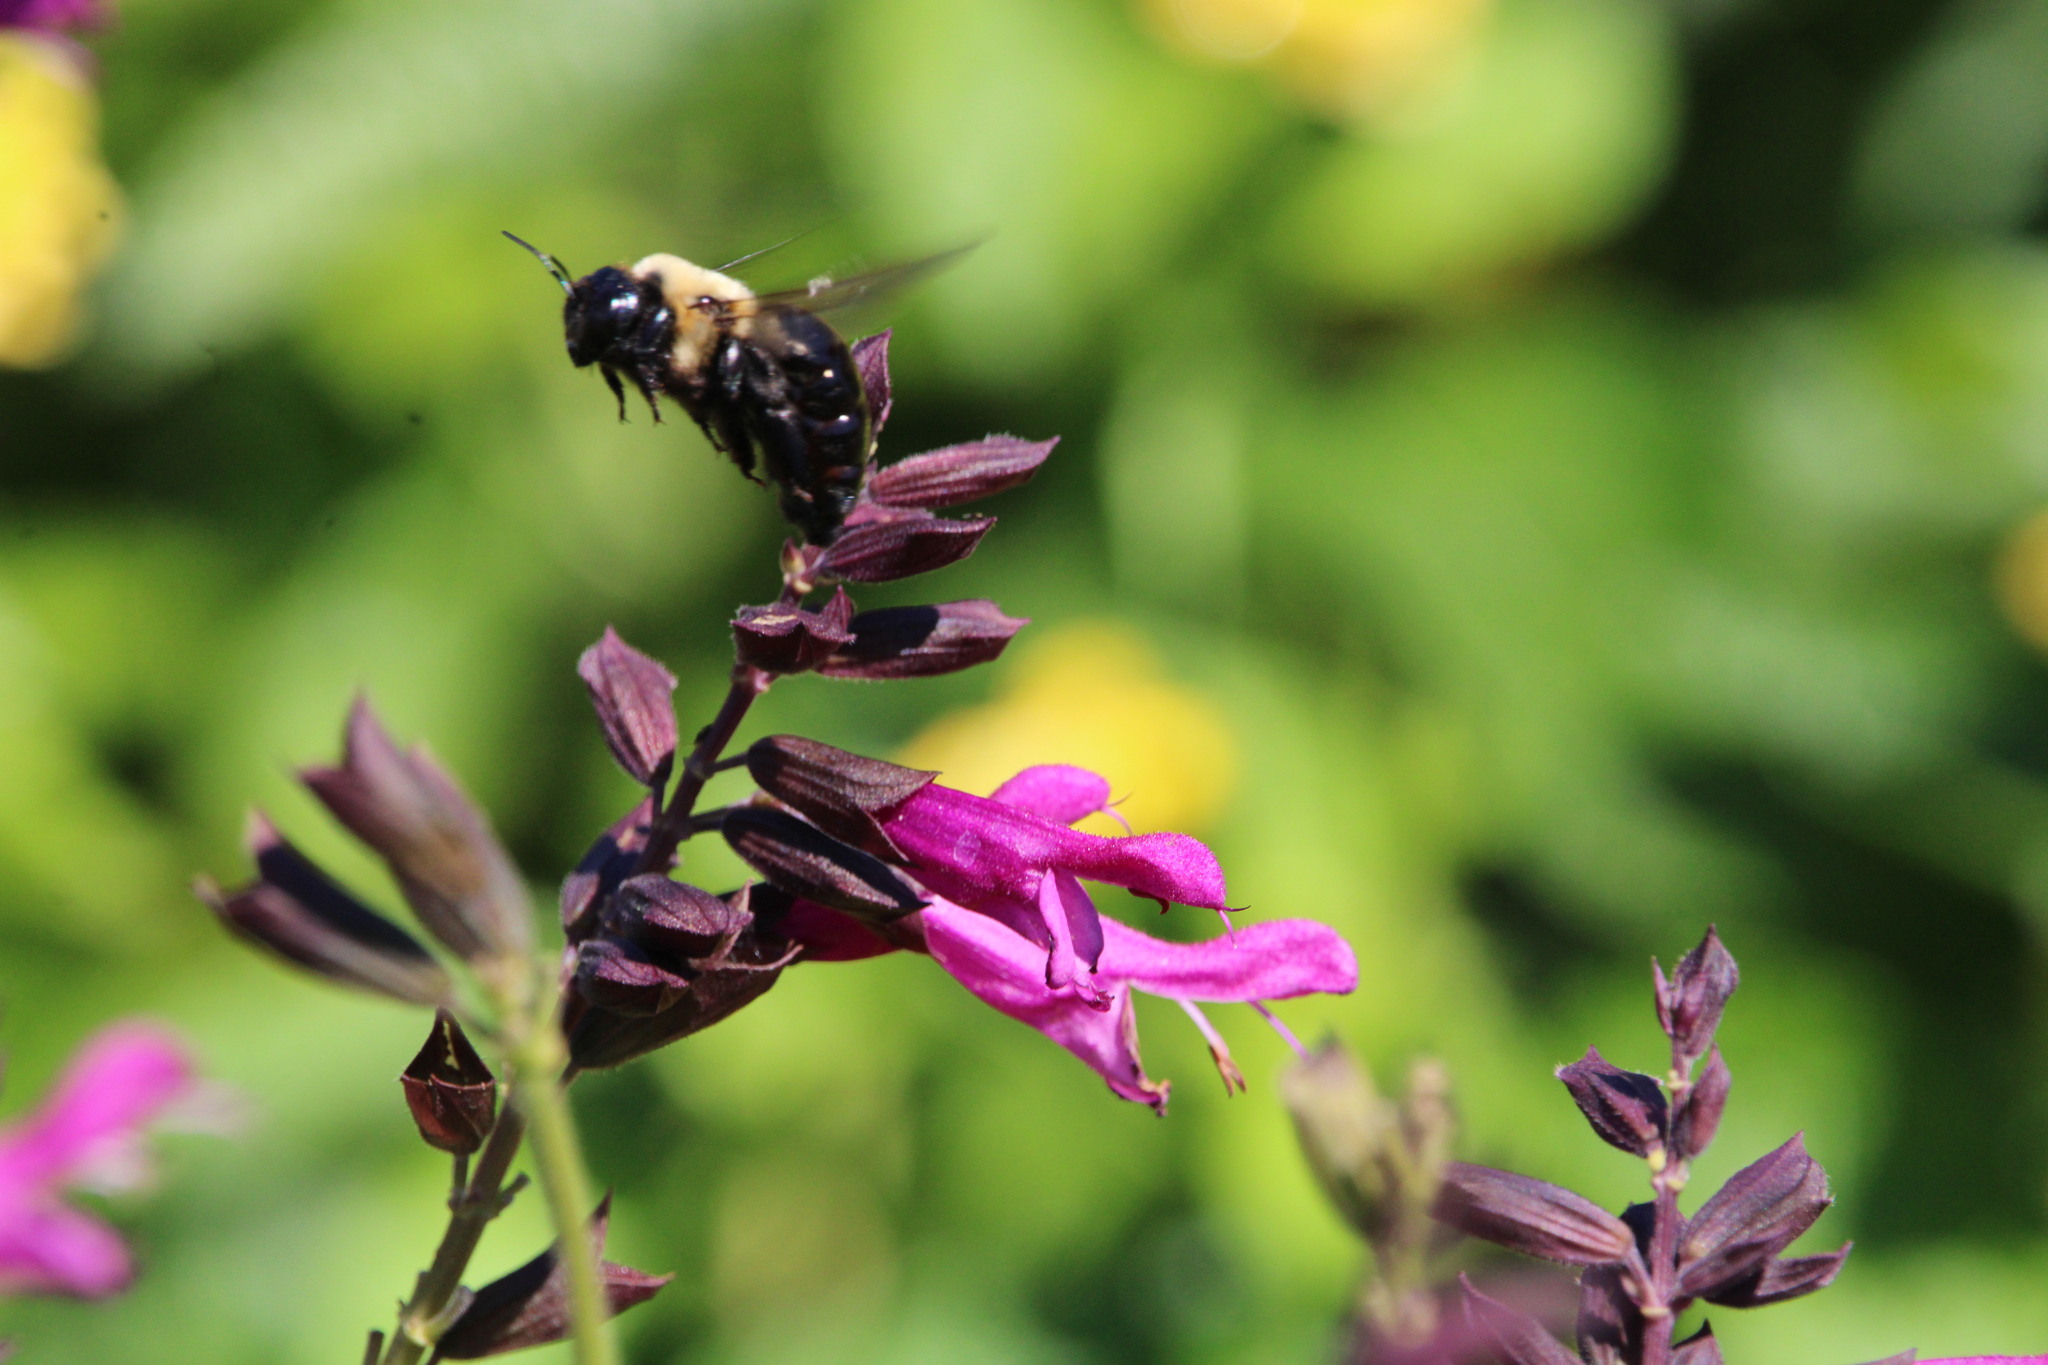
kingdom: Animalia
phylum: Arthropoda
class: Insecta
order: Hymenoptera
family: Apidae
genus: Xylocopa
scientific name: Xylocopa virginica
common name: Carpenter bee
